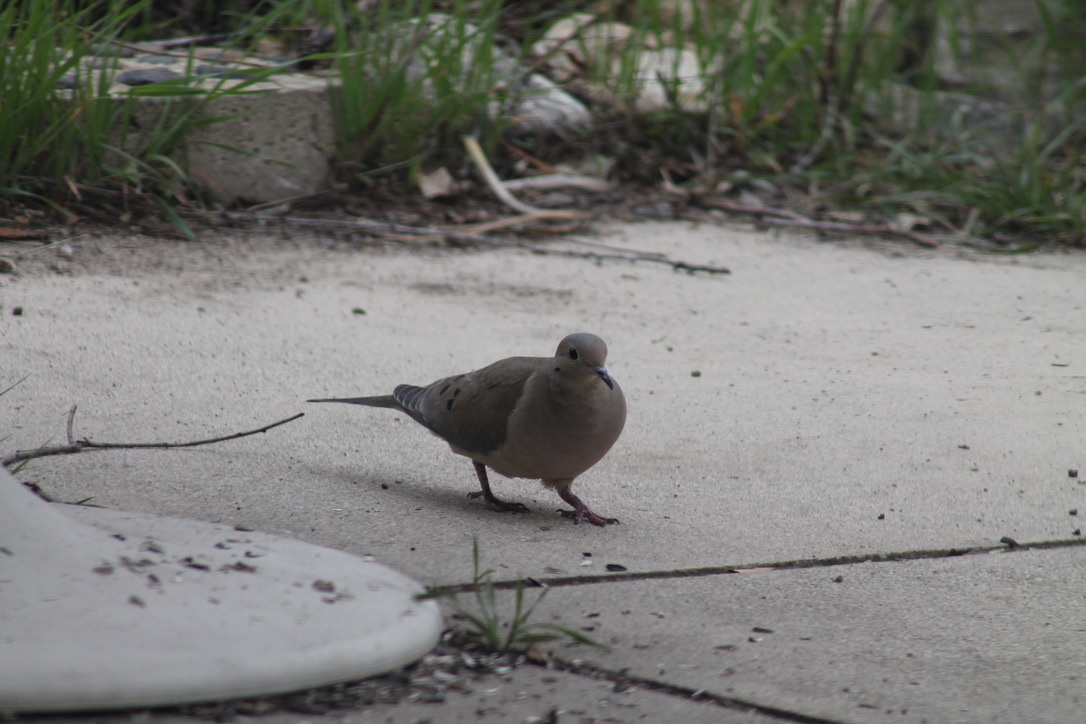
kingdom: Animalia
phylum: Chordata
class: Aves
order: Columbiformes
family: Columbidae
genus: Zenaida
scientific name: Zenaida macroura
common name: Mourning dove
